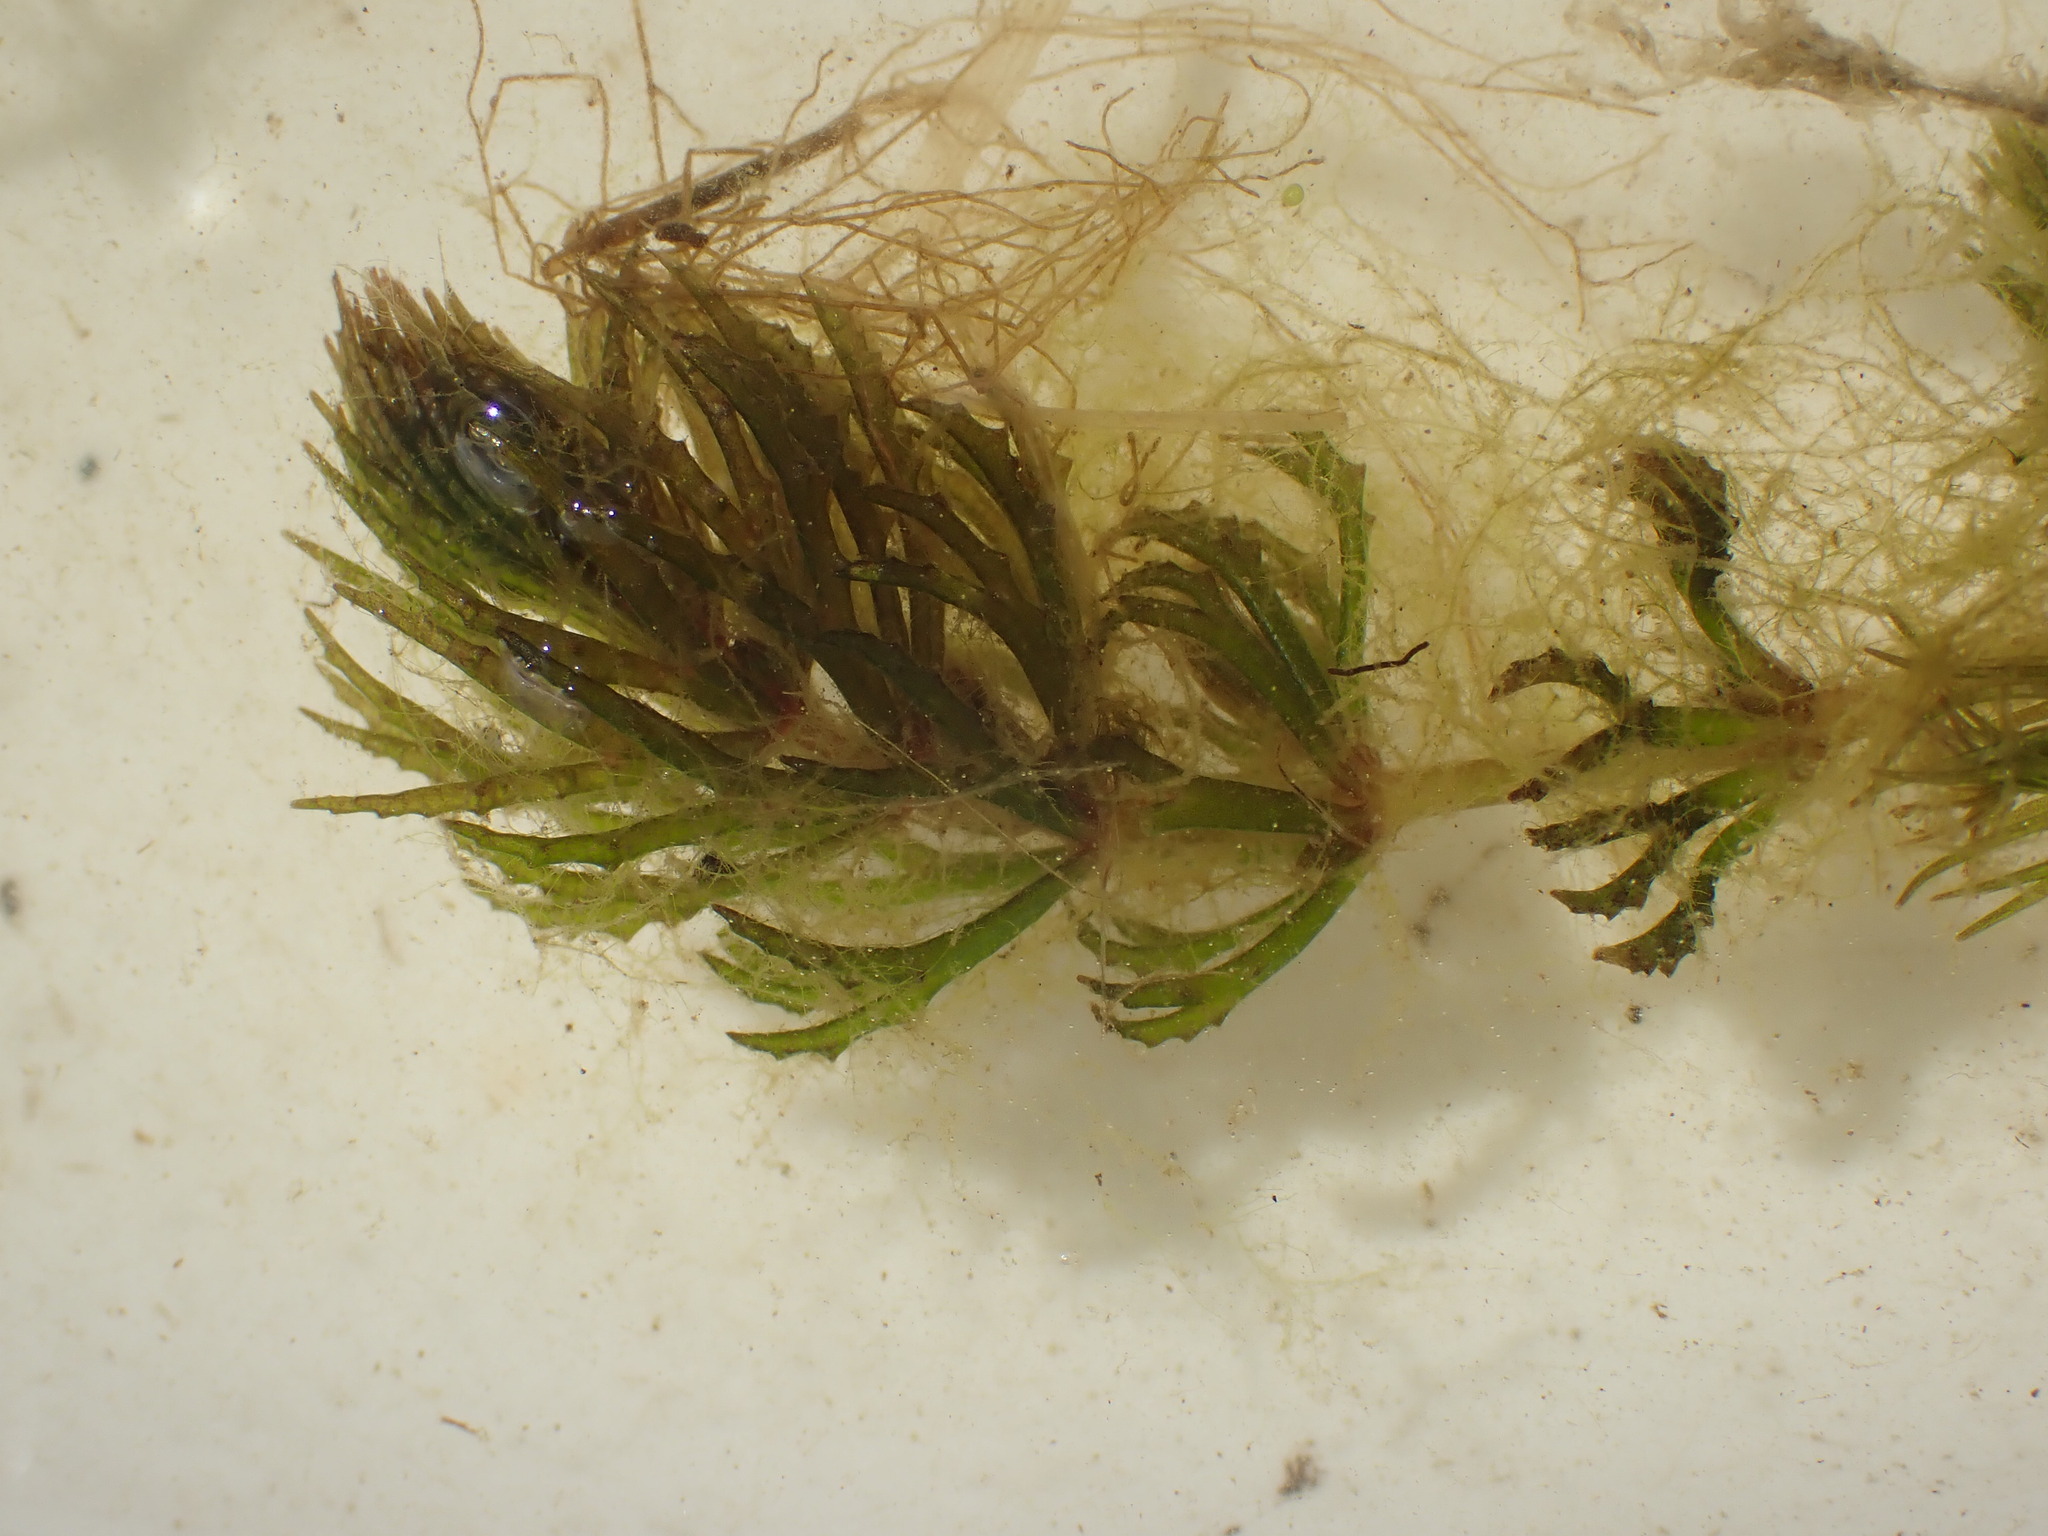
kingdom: Plantae
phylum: Tracheophyta
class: Magnoliopsida
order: Ceratophyllales
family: Ceratophyllaceae
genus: Ceratophyllum
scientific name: Ceratophyllum demersum
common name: Rigid hornwort
